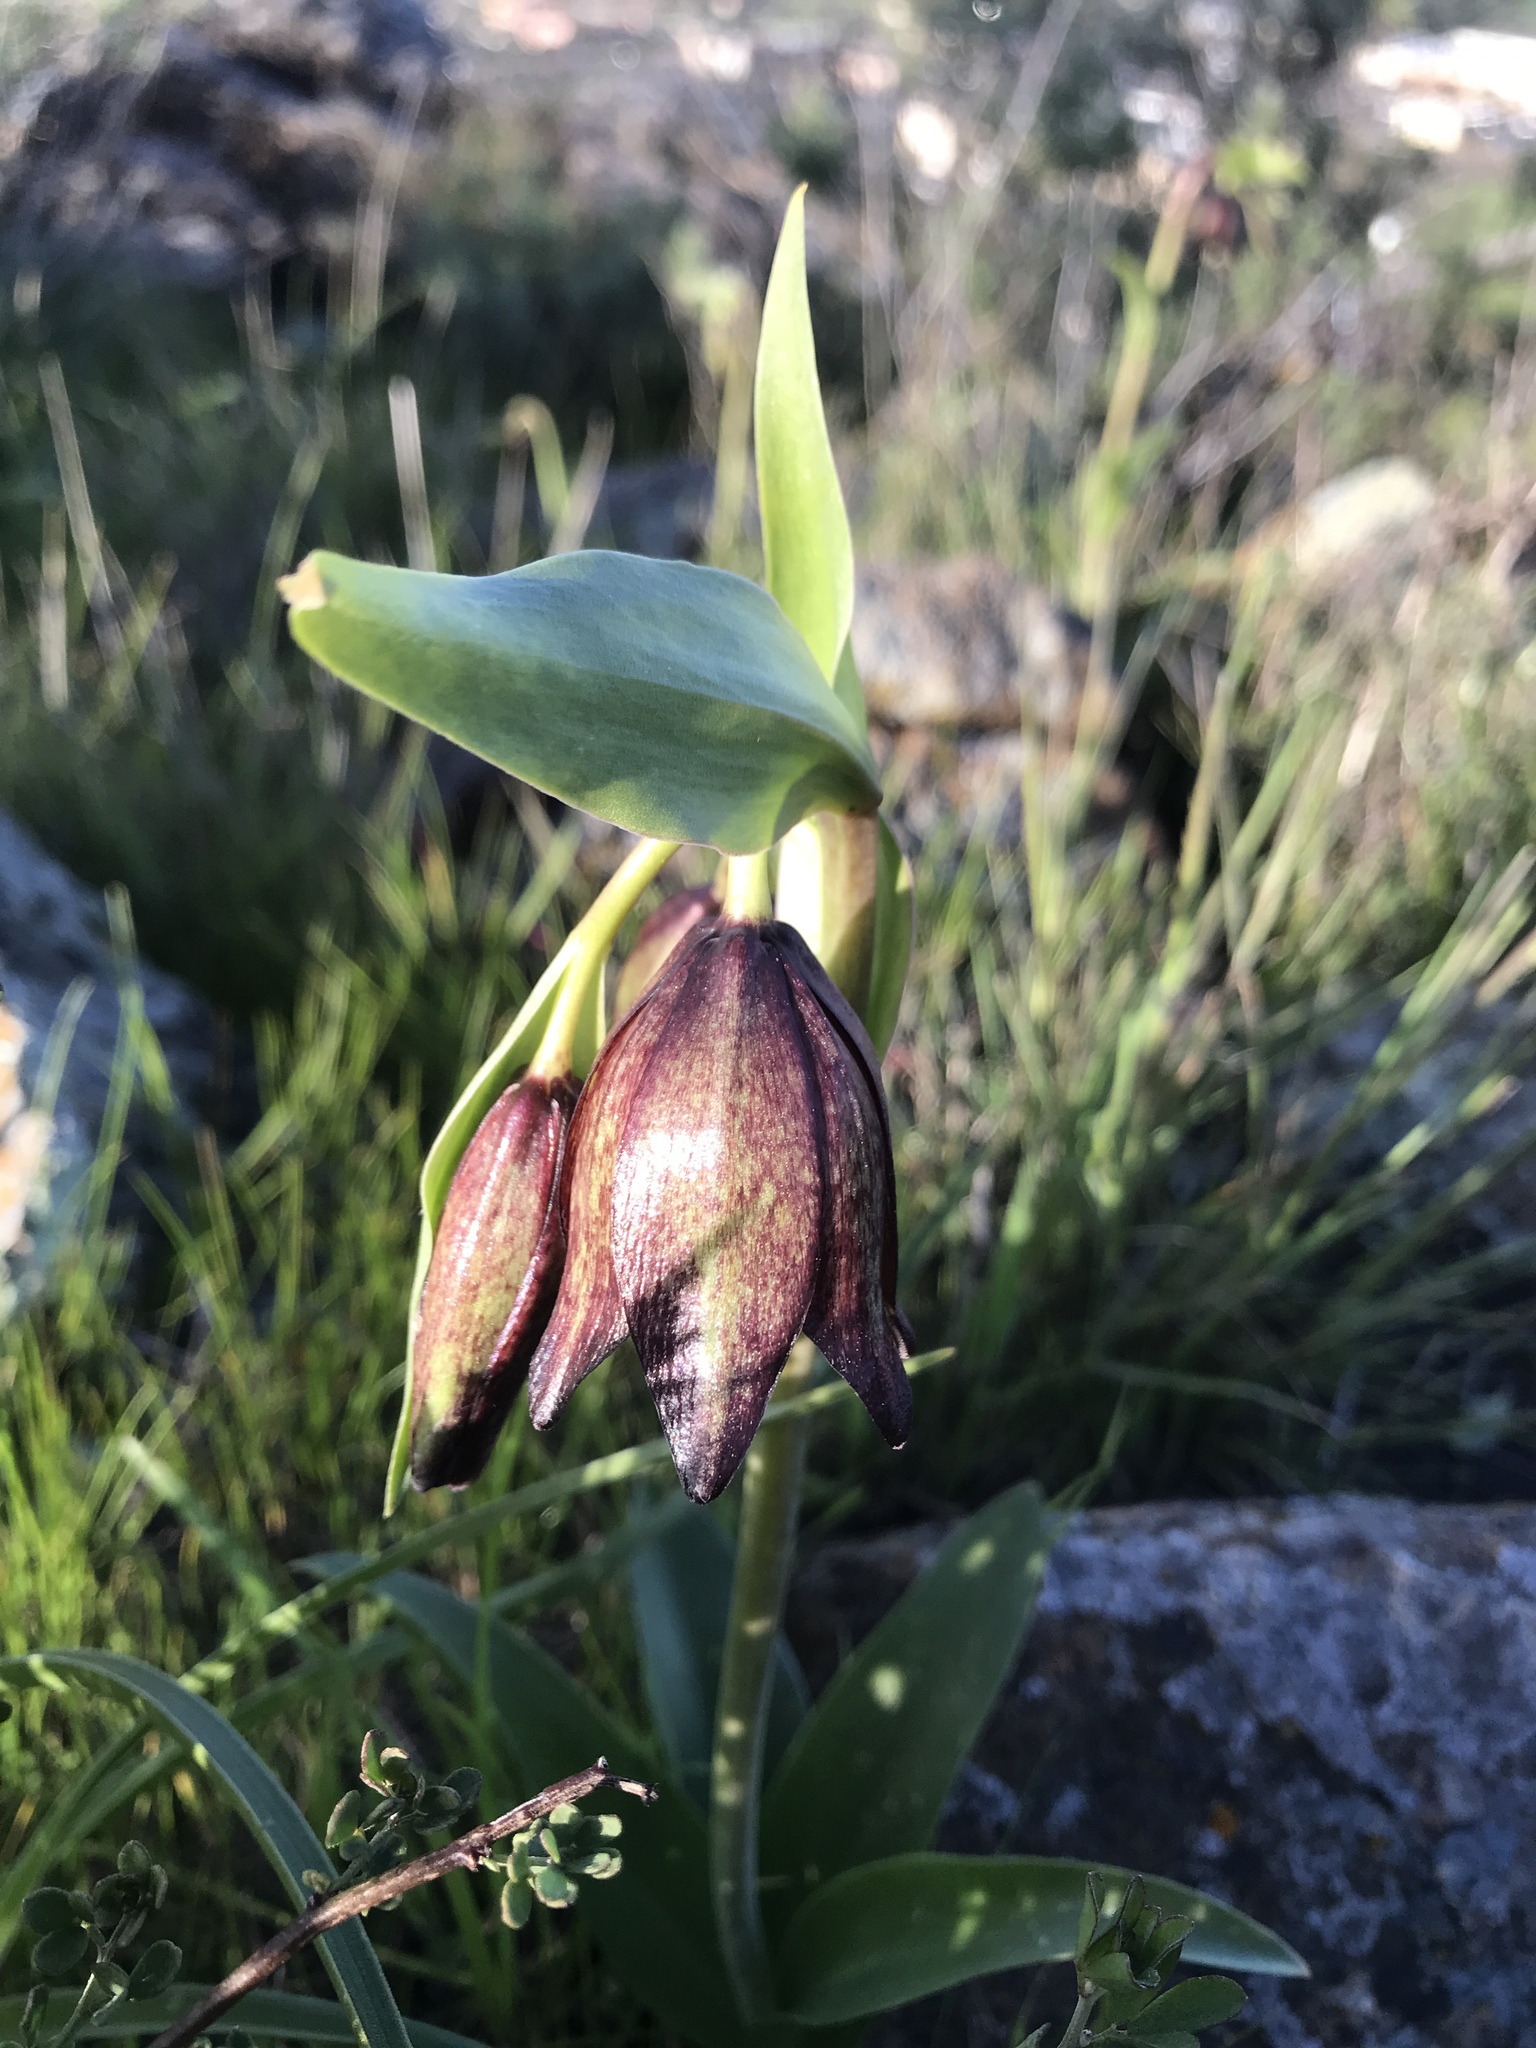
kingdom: Plantae
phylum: Tracheophyta
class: Liliopsida
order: Liliales
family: Liliaceae
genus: Fritillaria
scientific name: Fritillaria biflora
